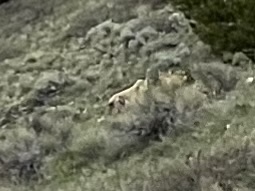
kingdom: Animalia
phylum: Chordata
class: Mammalia
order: Carnivora
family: Felidae
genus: Puma
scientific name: Puma concolor
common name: Puma
